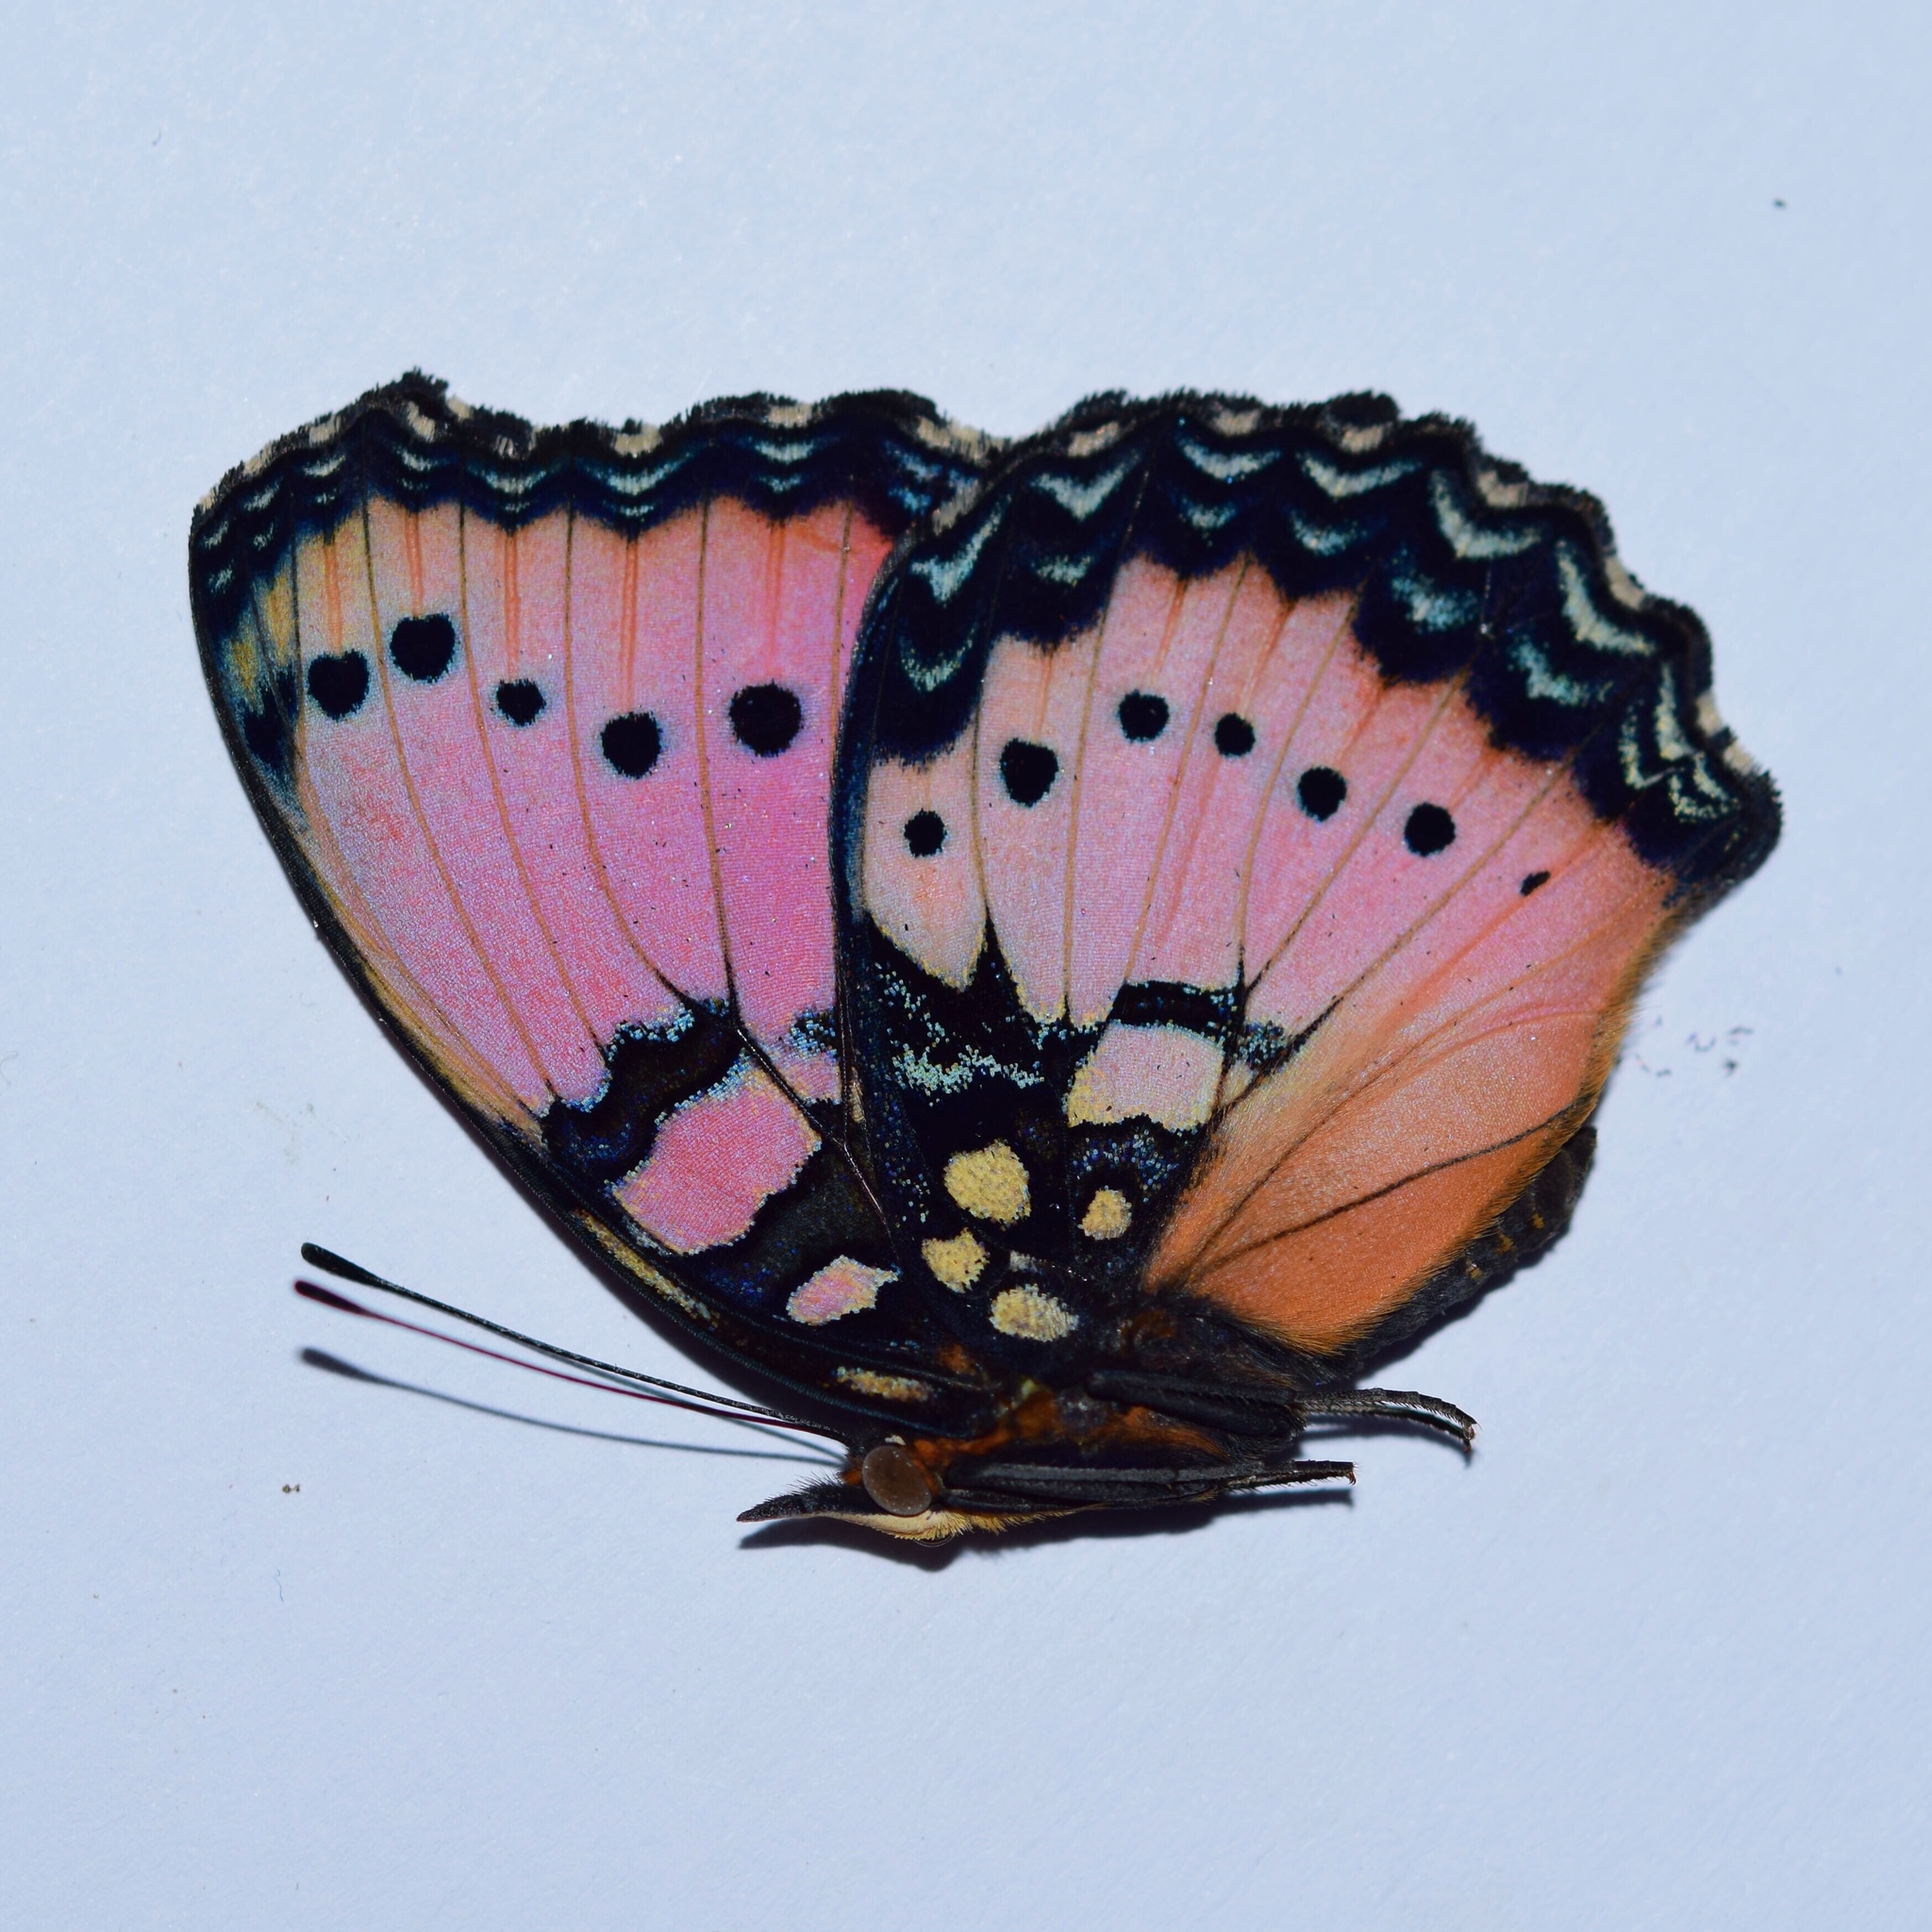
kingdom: Animalia
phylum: Arthropoda
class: Insecta
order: Lepidoptera
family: Nymphalidae
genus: Precis
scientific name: Precis octavia
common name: Gaudy commodore
